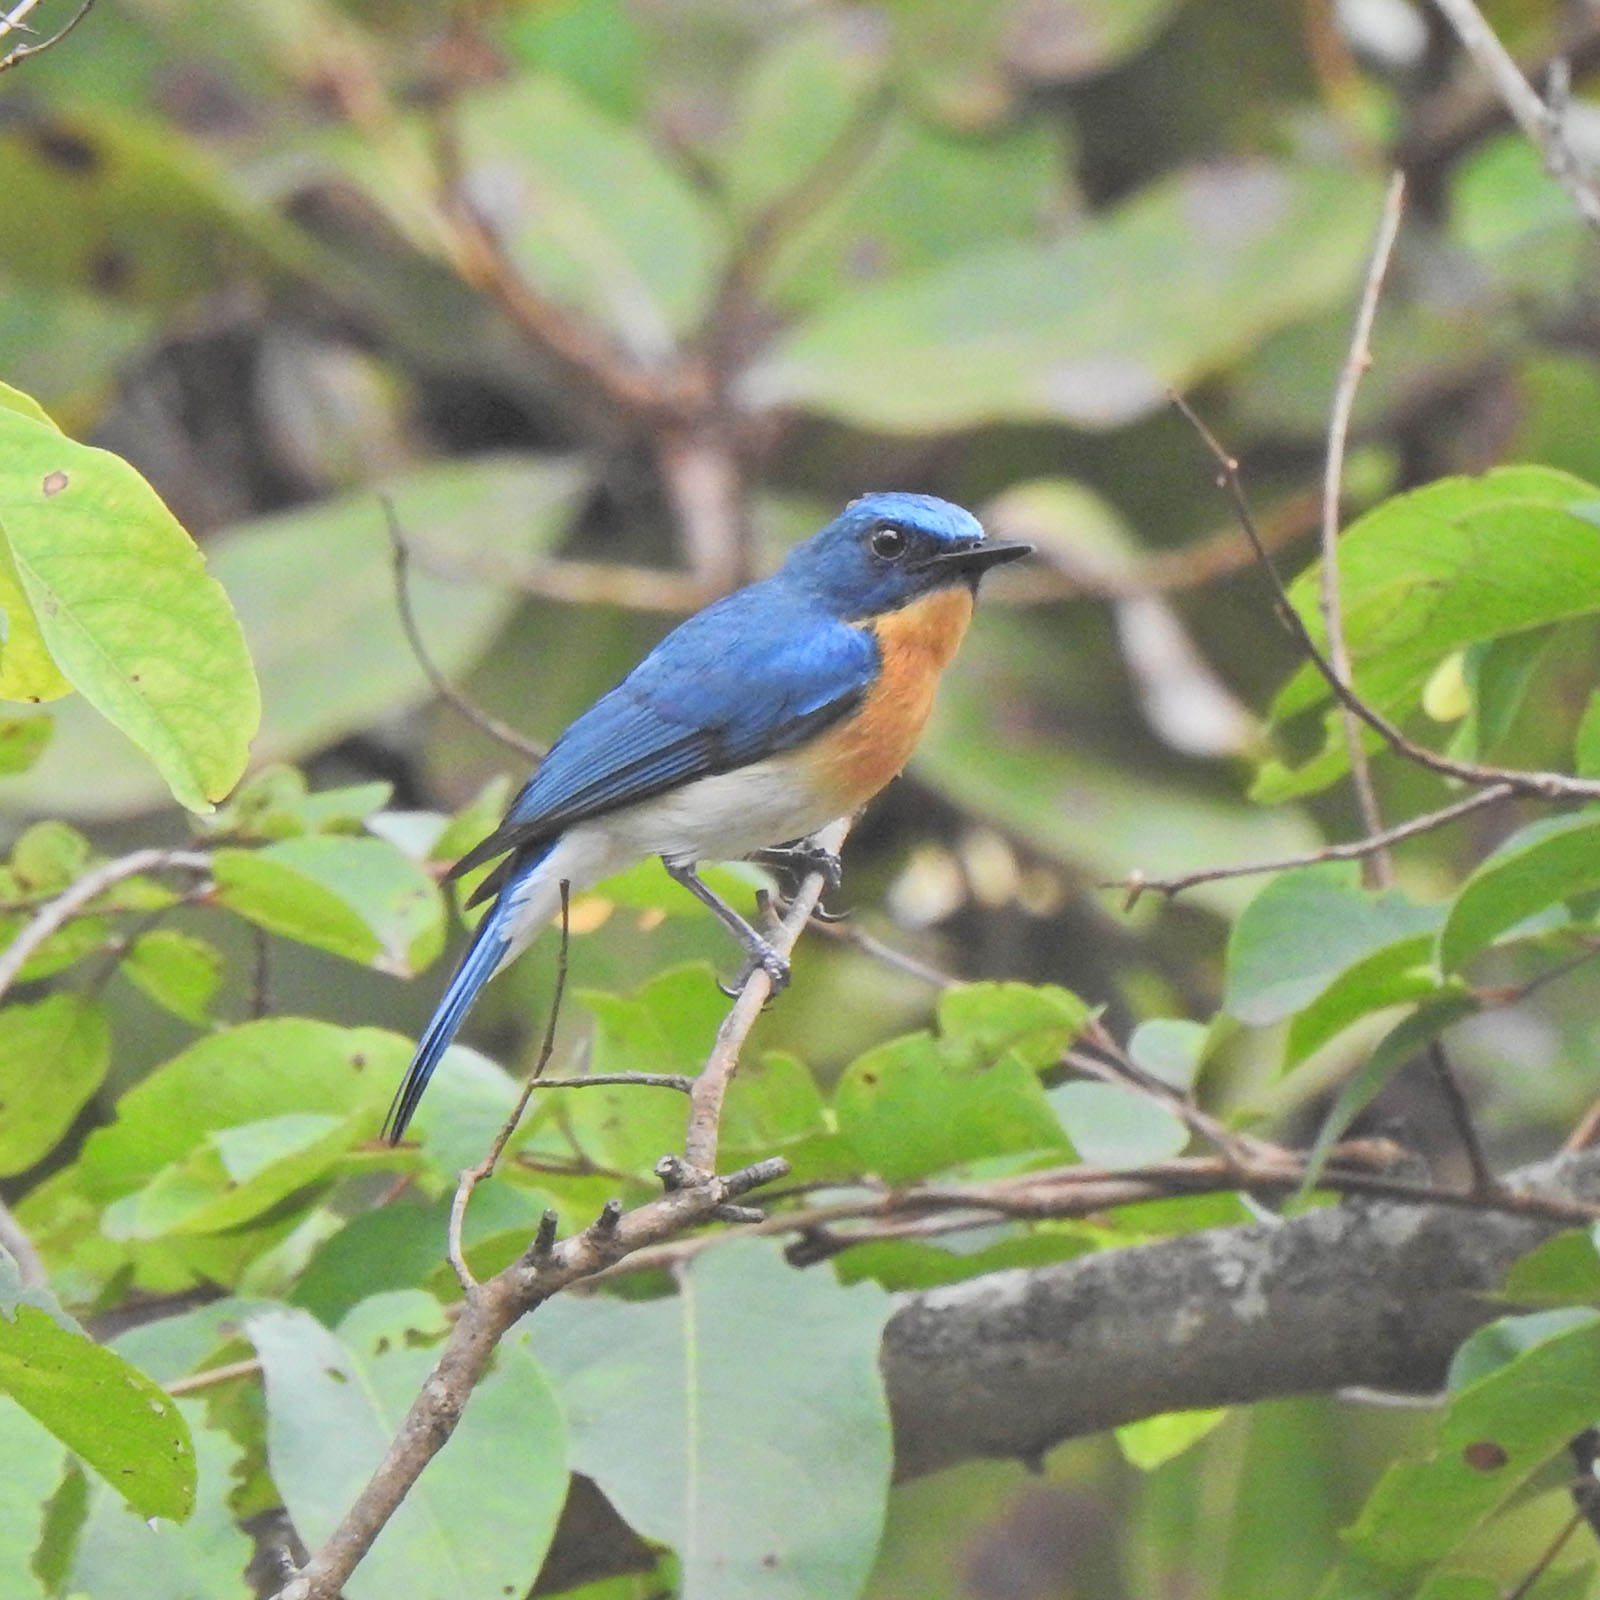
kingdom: Animalia
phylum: Chordata
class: Aves
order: Passeriformes
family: Muscicapidae
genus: Cyornis
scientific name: Cyornis tickelliae
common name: Tickell's blue flycatcher
